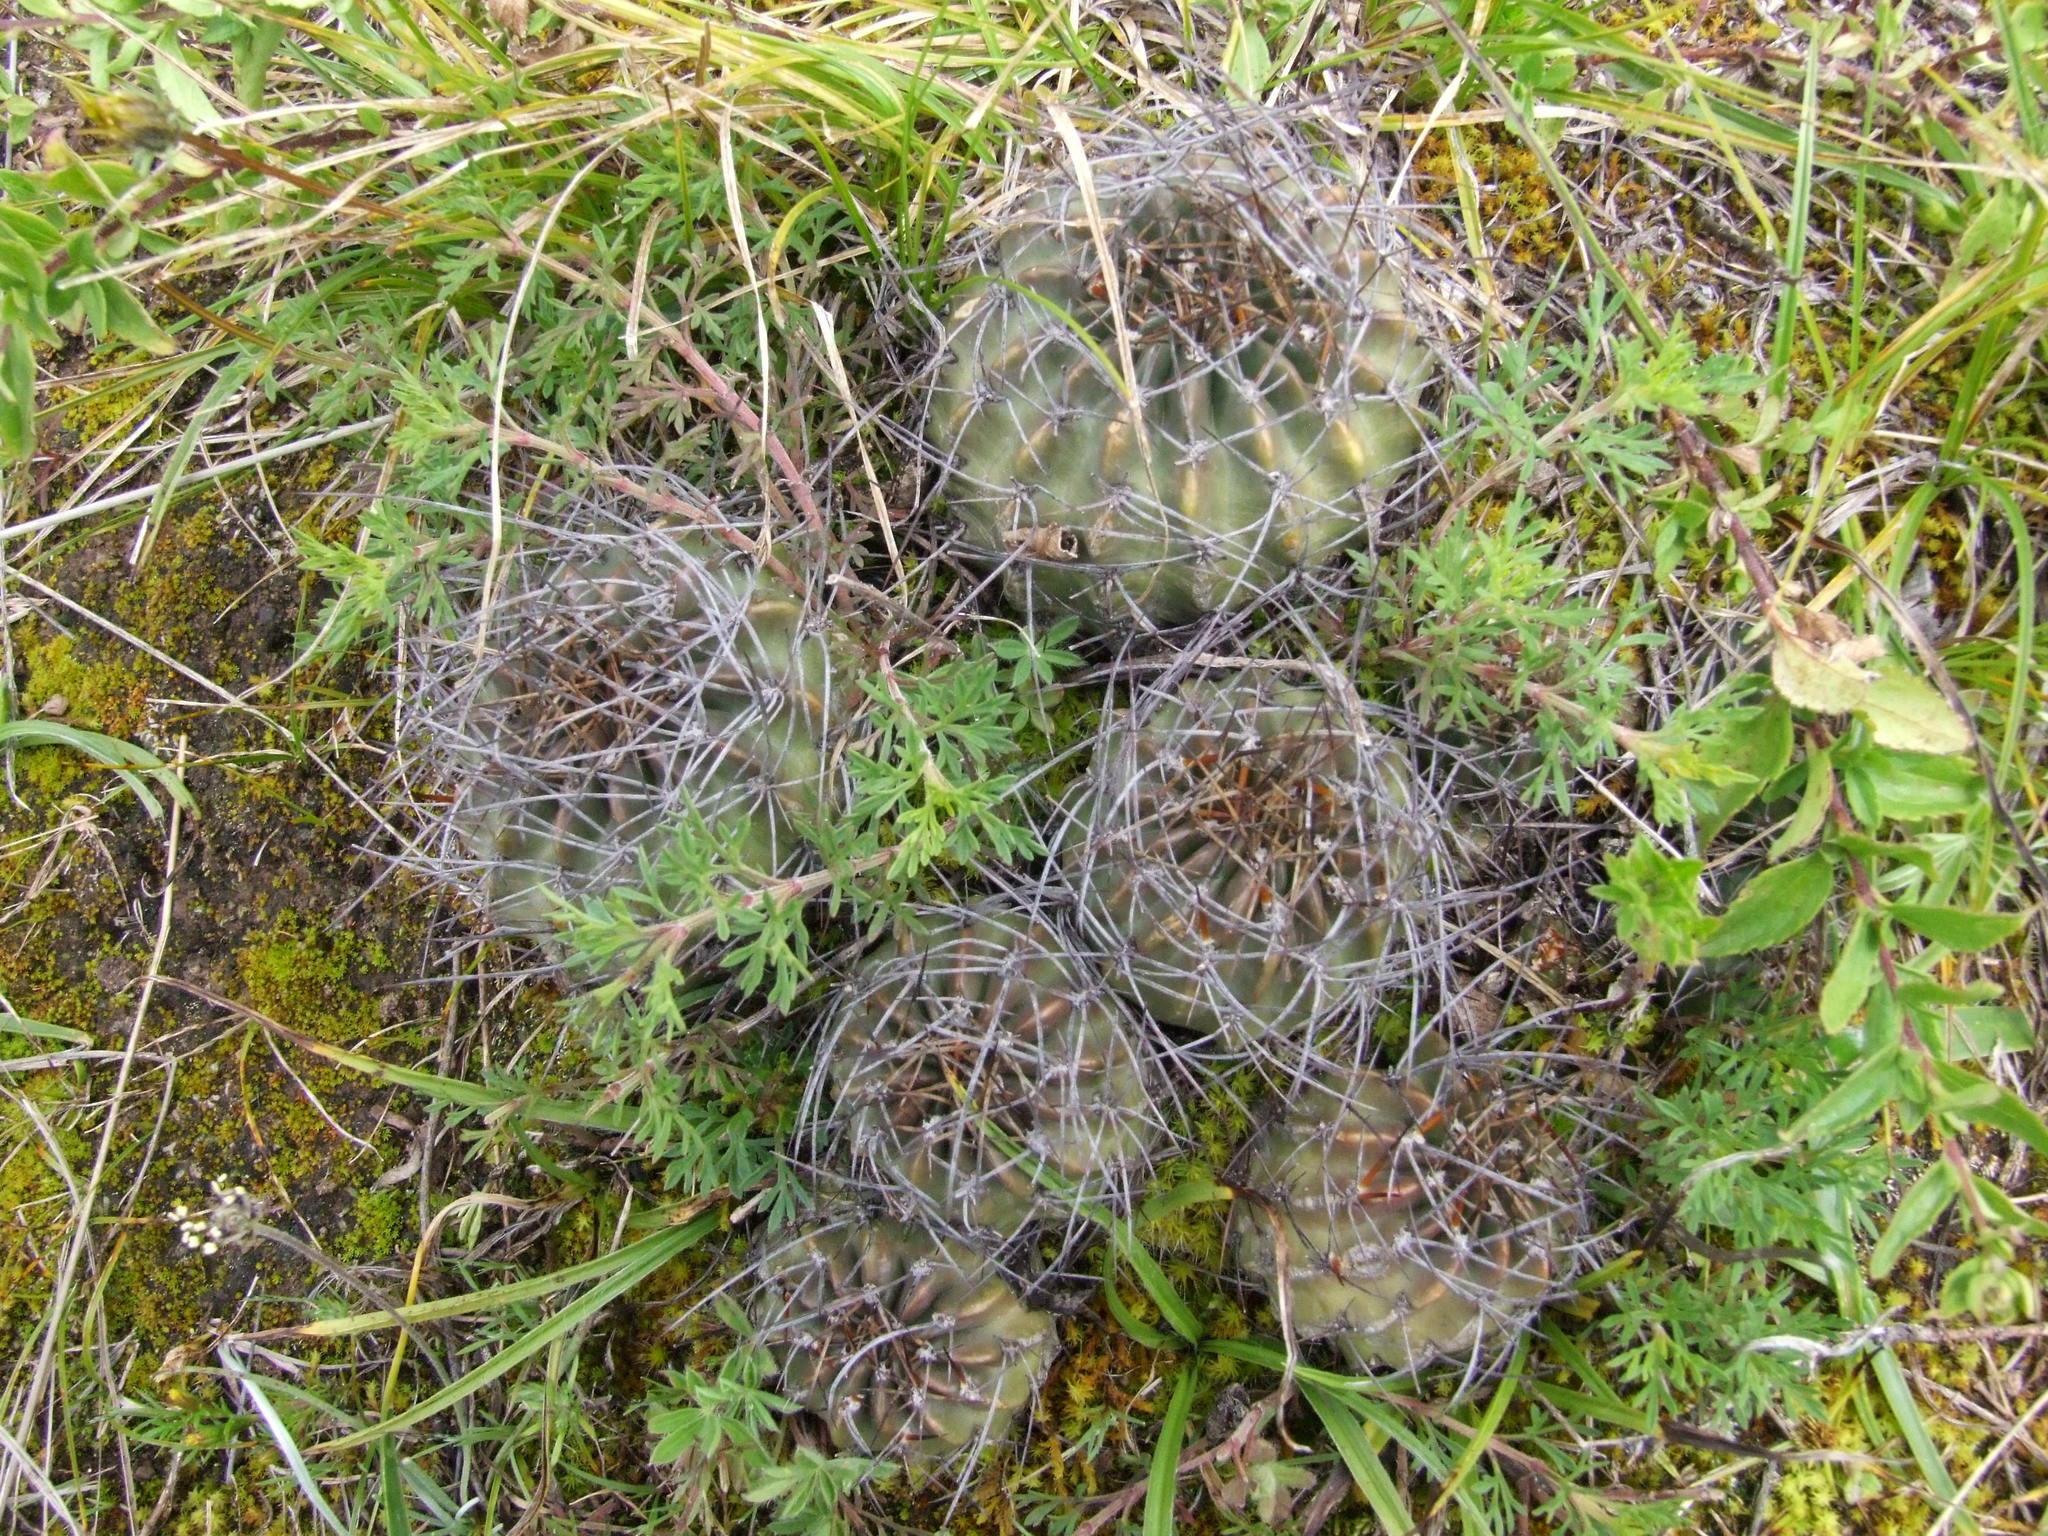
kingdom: Plantae
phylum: Tracheophyta
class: Magnoliopsida
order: Caryophyllales
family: Cactaceae
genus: Lobivia
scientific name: Lobivia maximiliana
